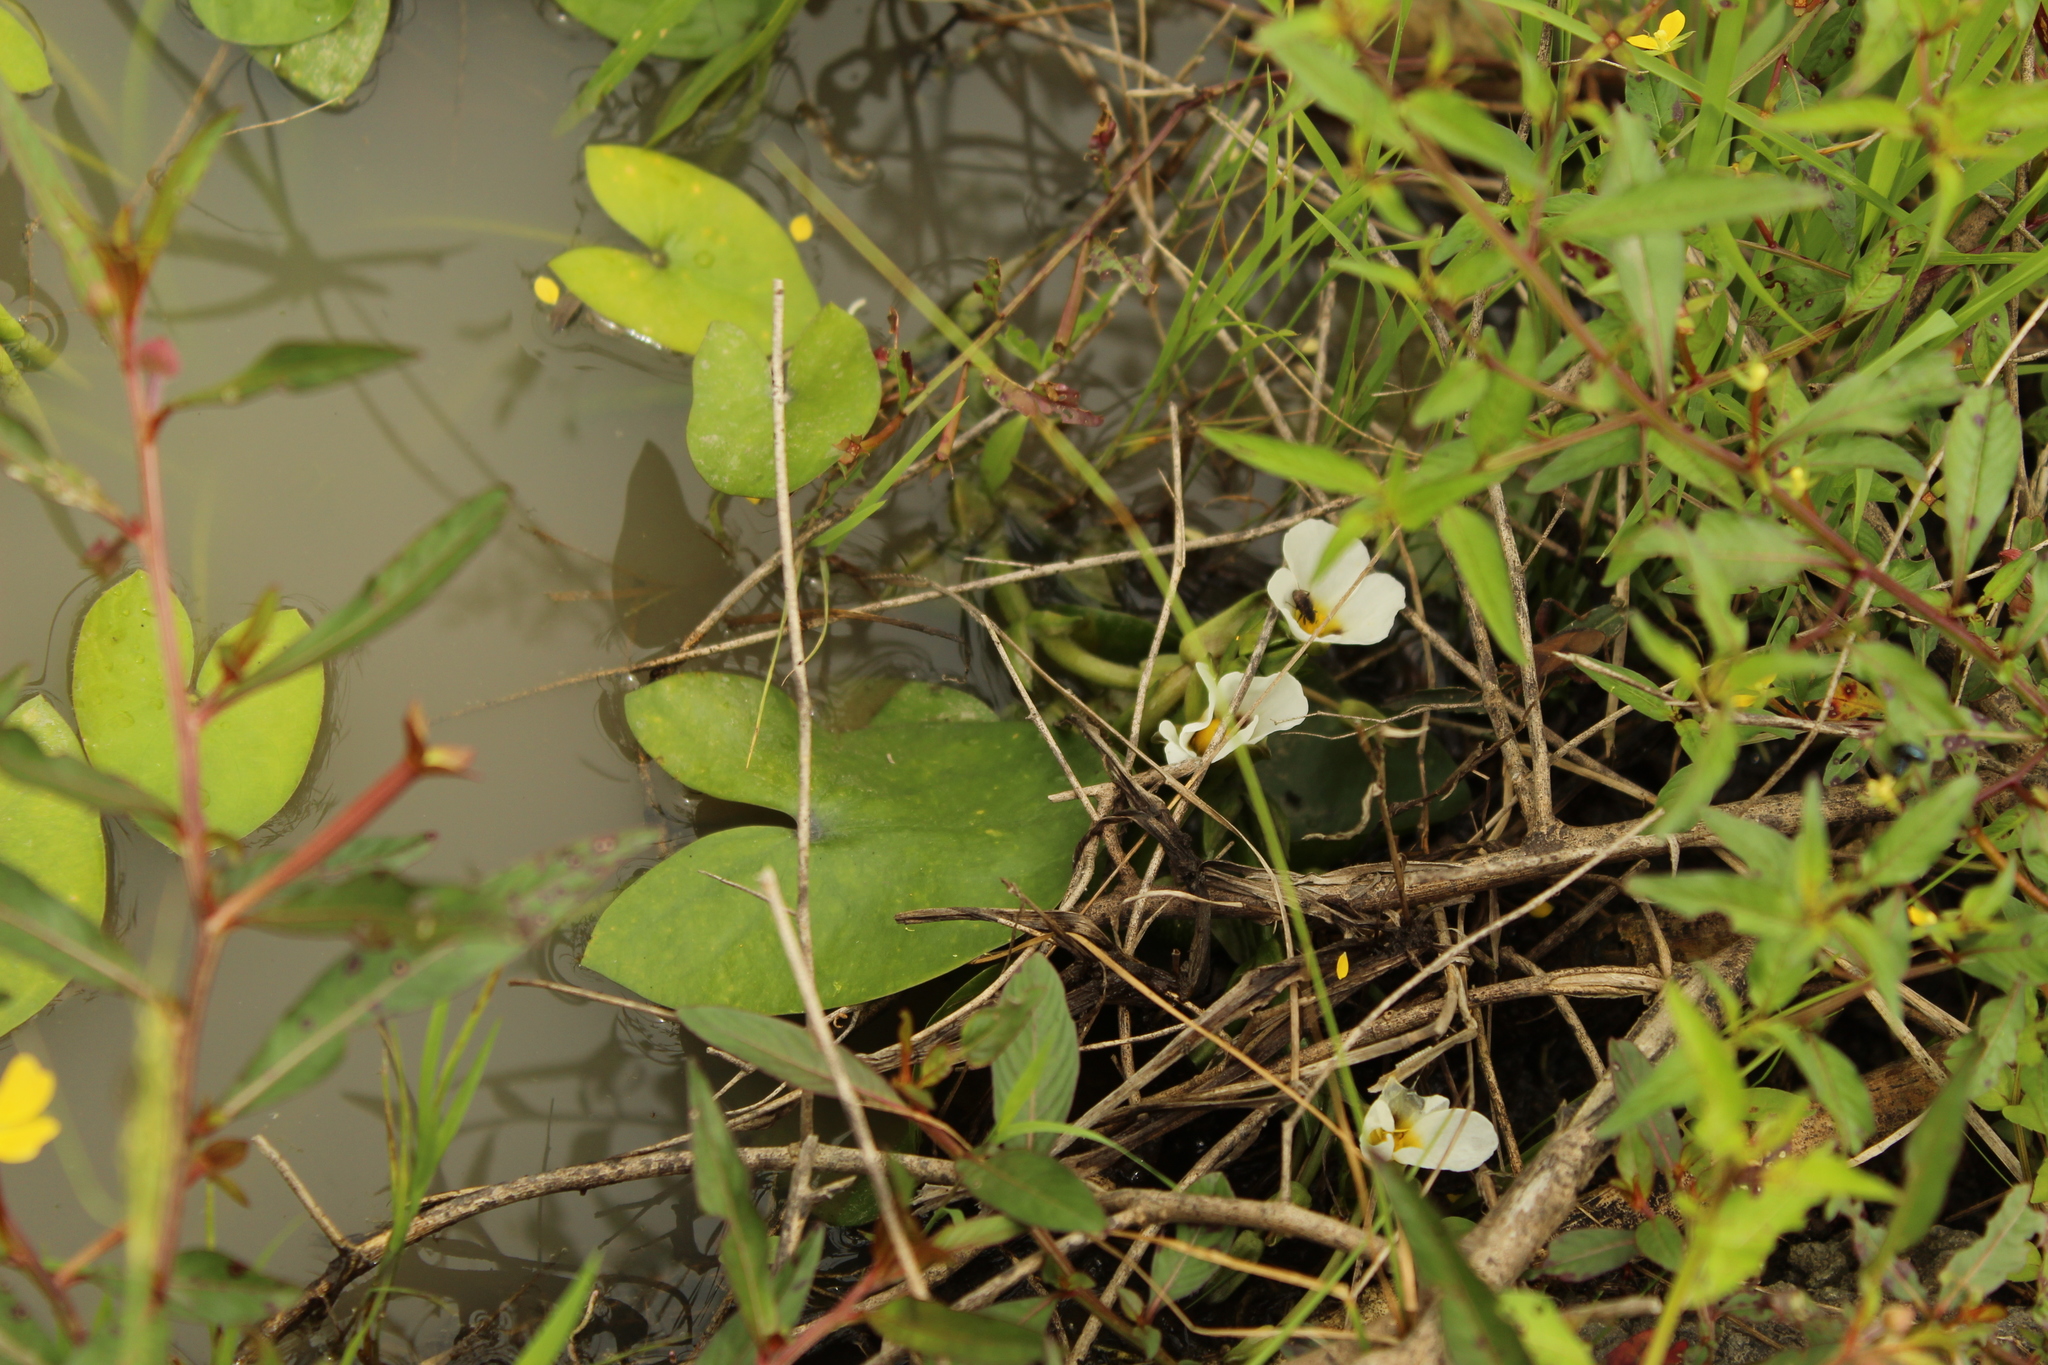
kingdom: Plantae
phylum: Tracheophyta
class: Liliopsida
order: Alismatales
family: Alismataceae
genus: Sagittaria
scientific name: Sagittaria guayanensis
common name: Guyanese arrowhead
